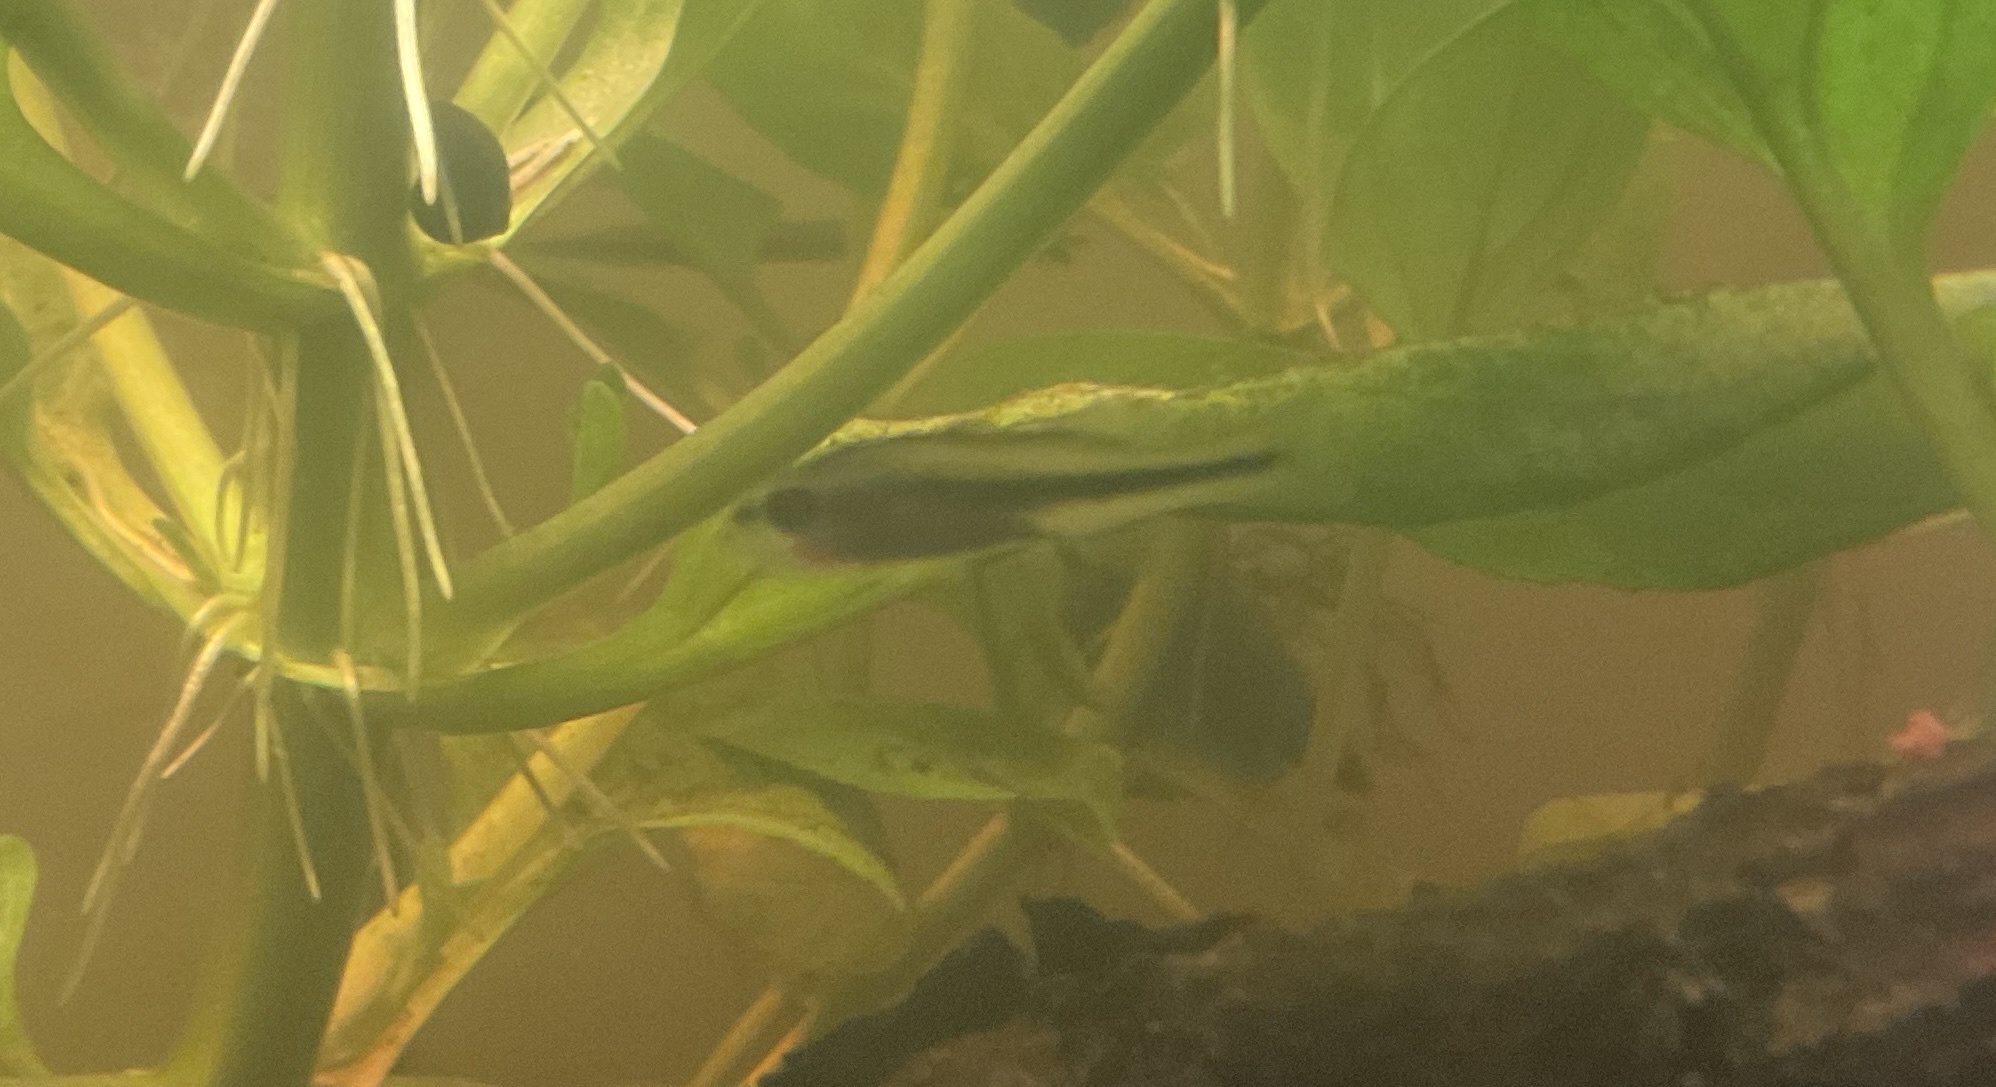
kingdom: Animalia
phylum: Chordata
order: Perciformes
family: Centrarchidae
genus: Micropterus
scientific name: Micropterus
